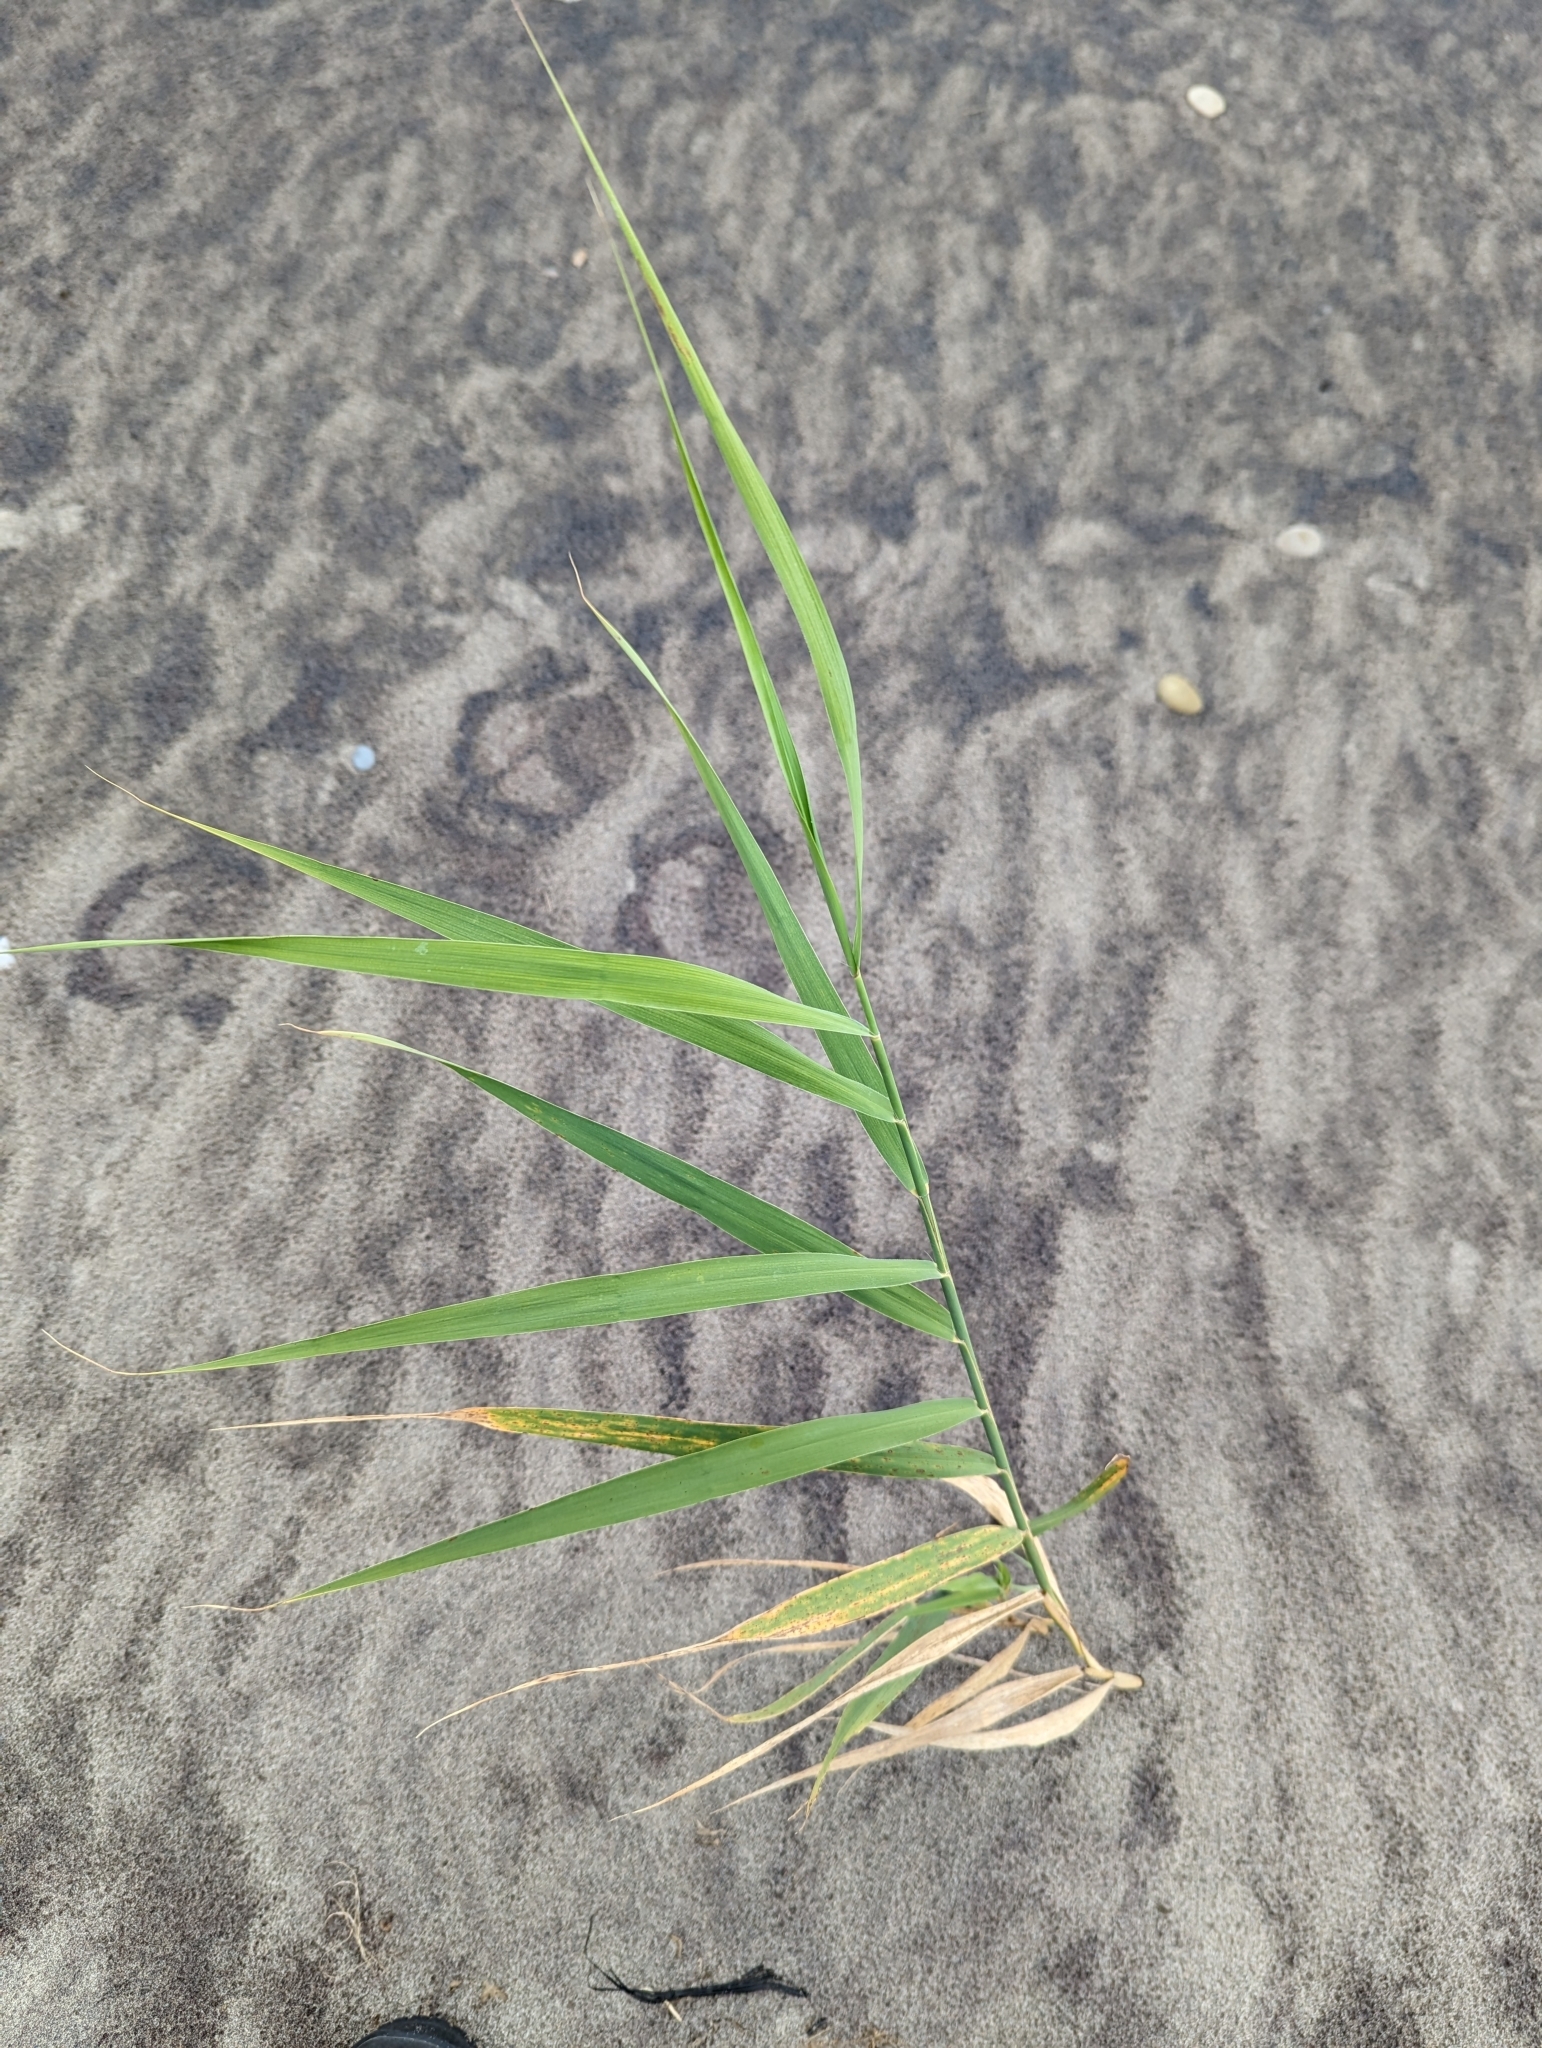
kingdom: Plantae
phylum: Tracheophyta
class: Liliopsida
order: Poales
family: Poaceae
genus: Phragmites
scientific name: Phragmites australis
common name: Common reed
